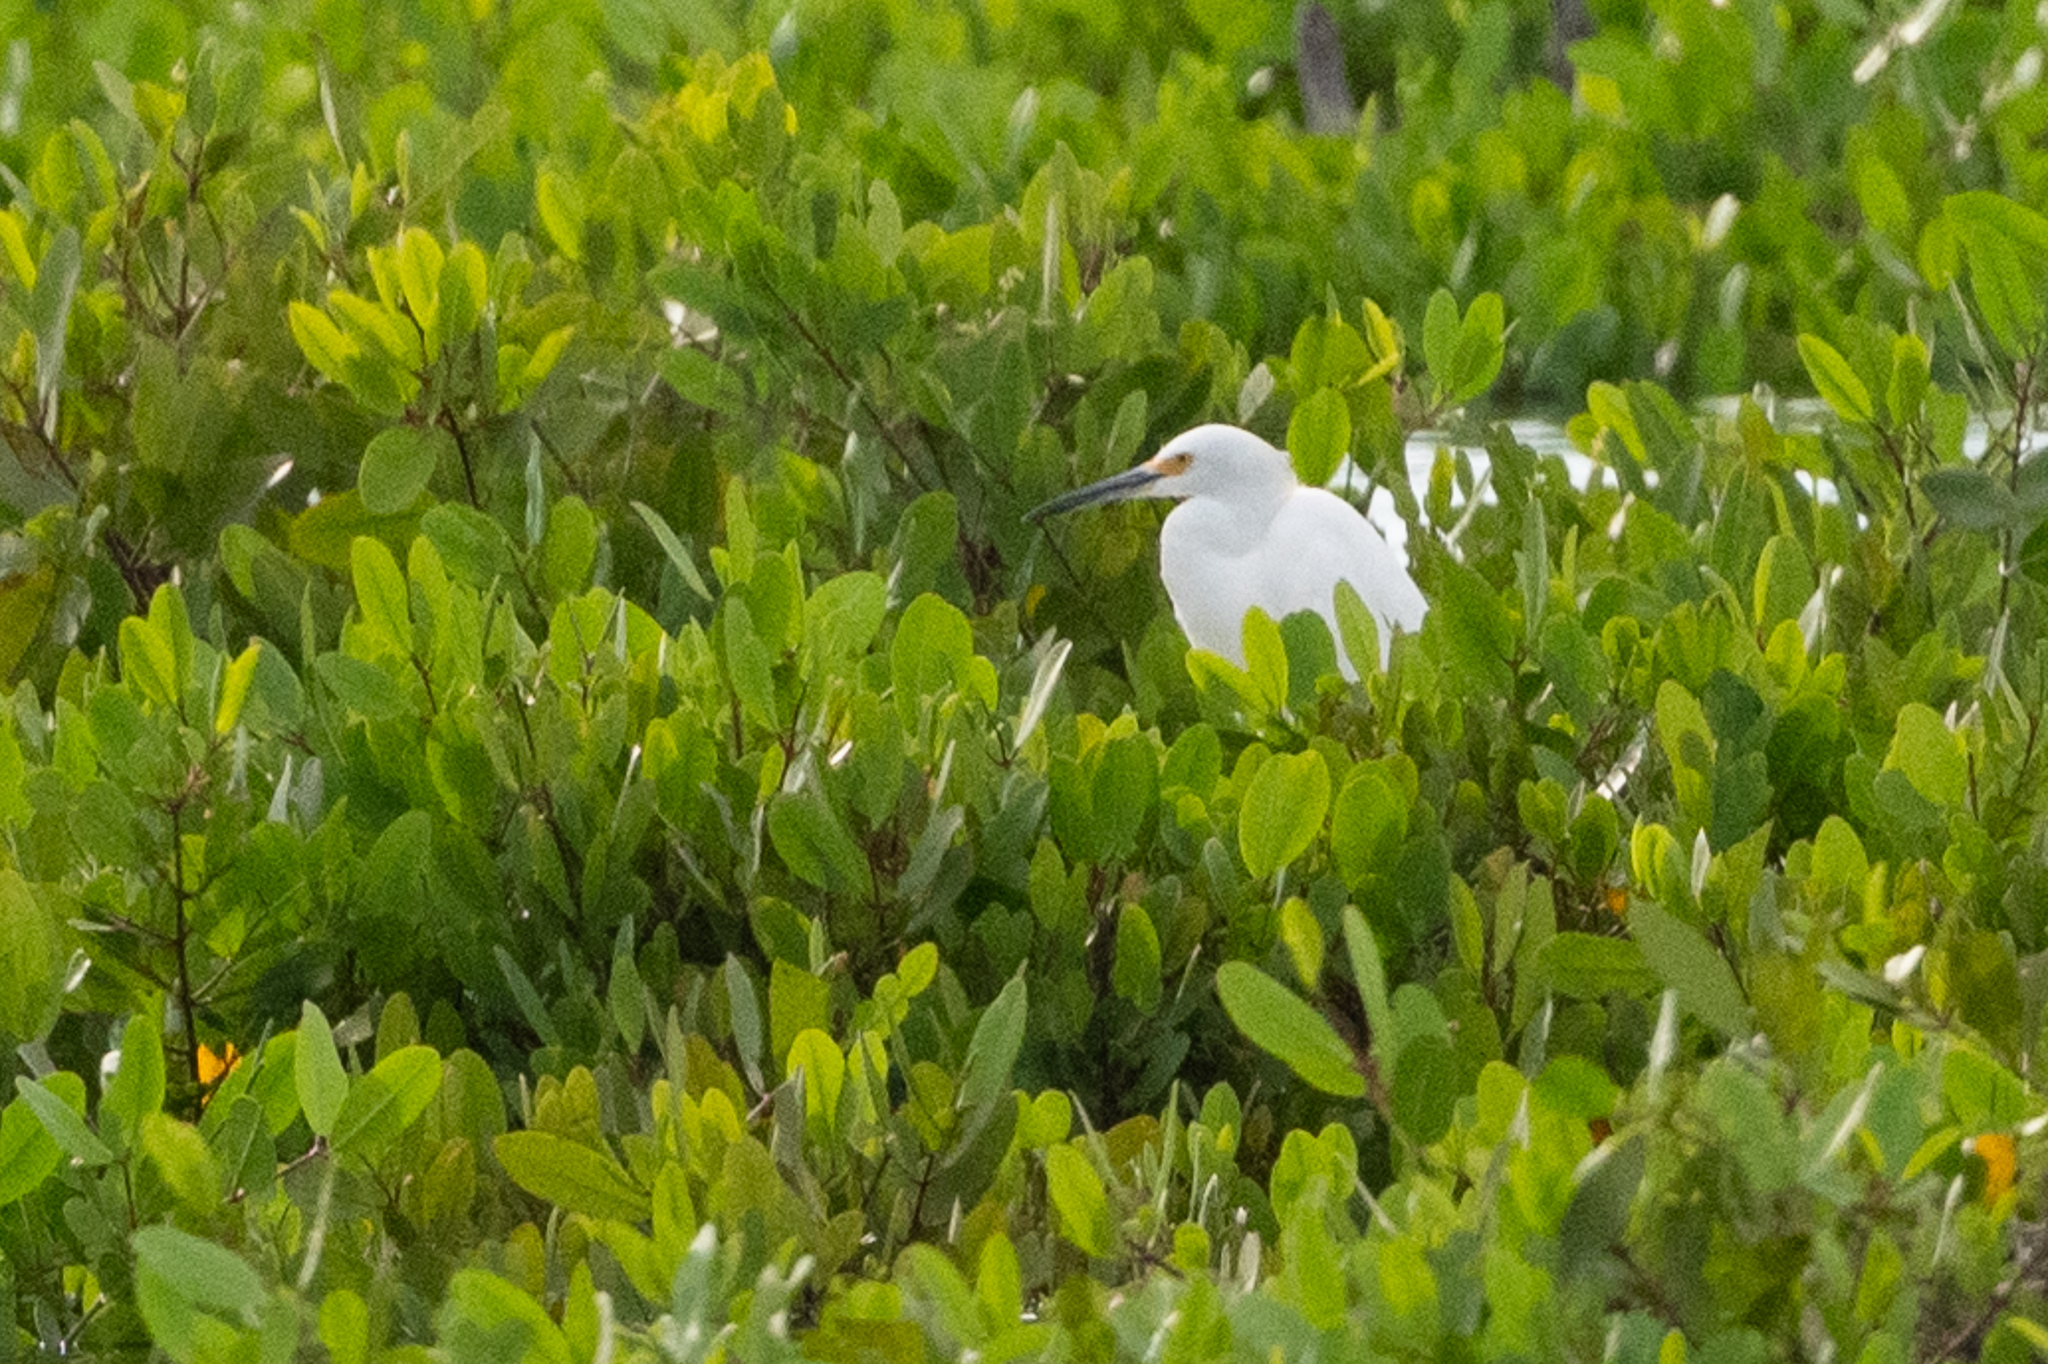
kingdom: Animalia
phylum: Chordata
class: Aves
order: Pelecaniformes
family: Ardeidae
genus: Egretta
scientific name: Egretta thula
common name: Snowy egret
